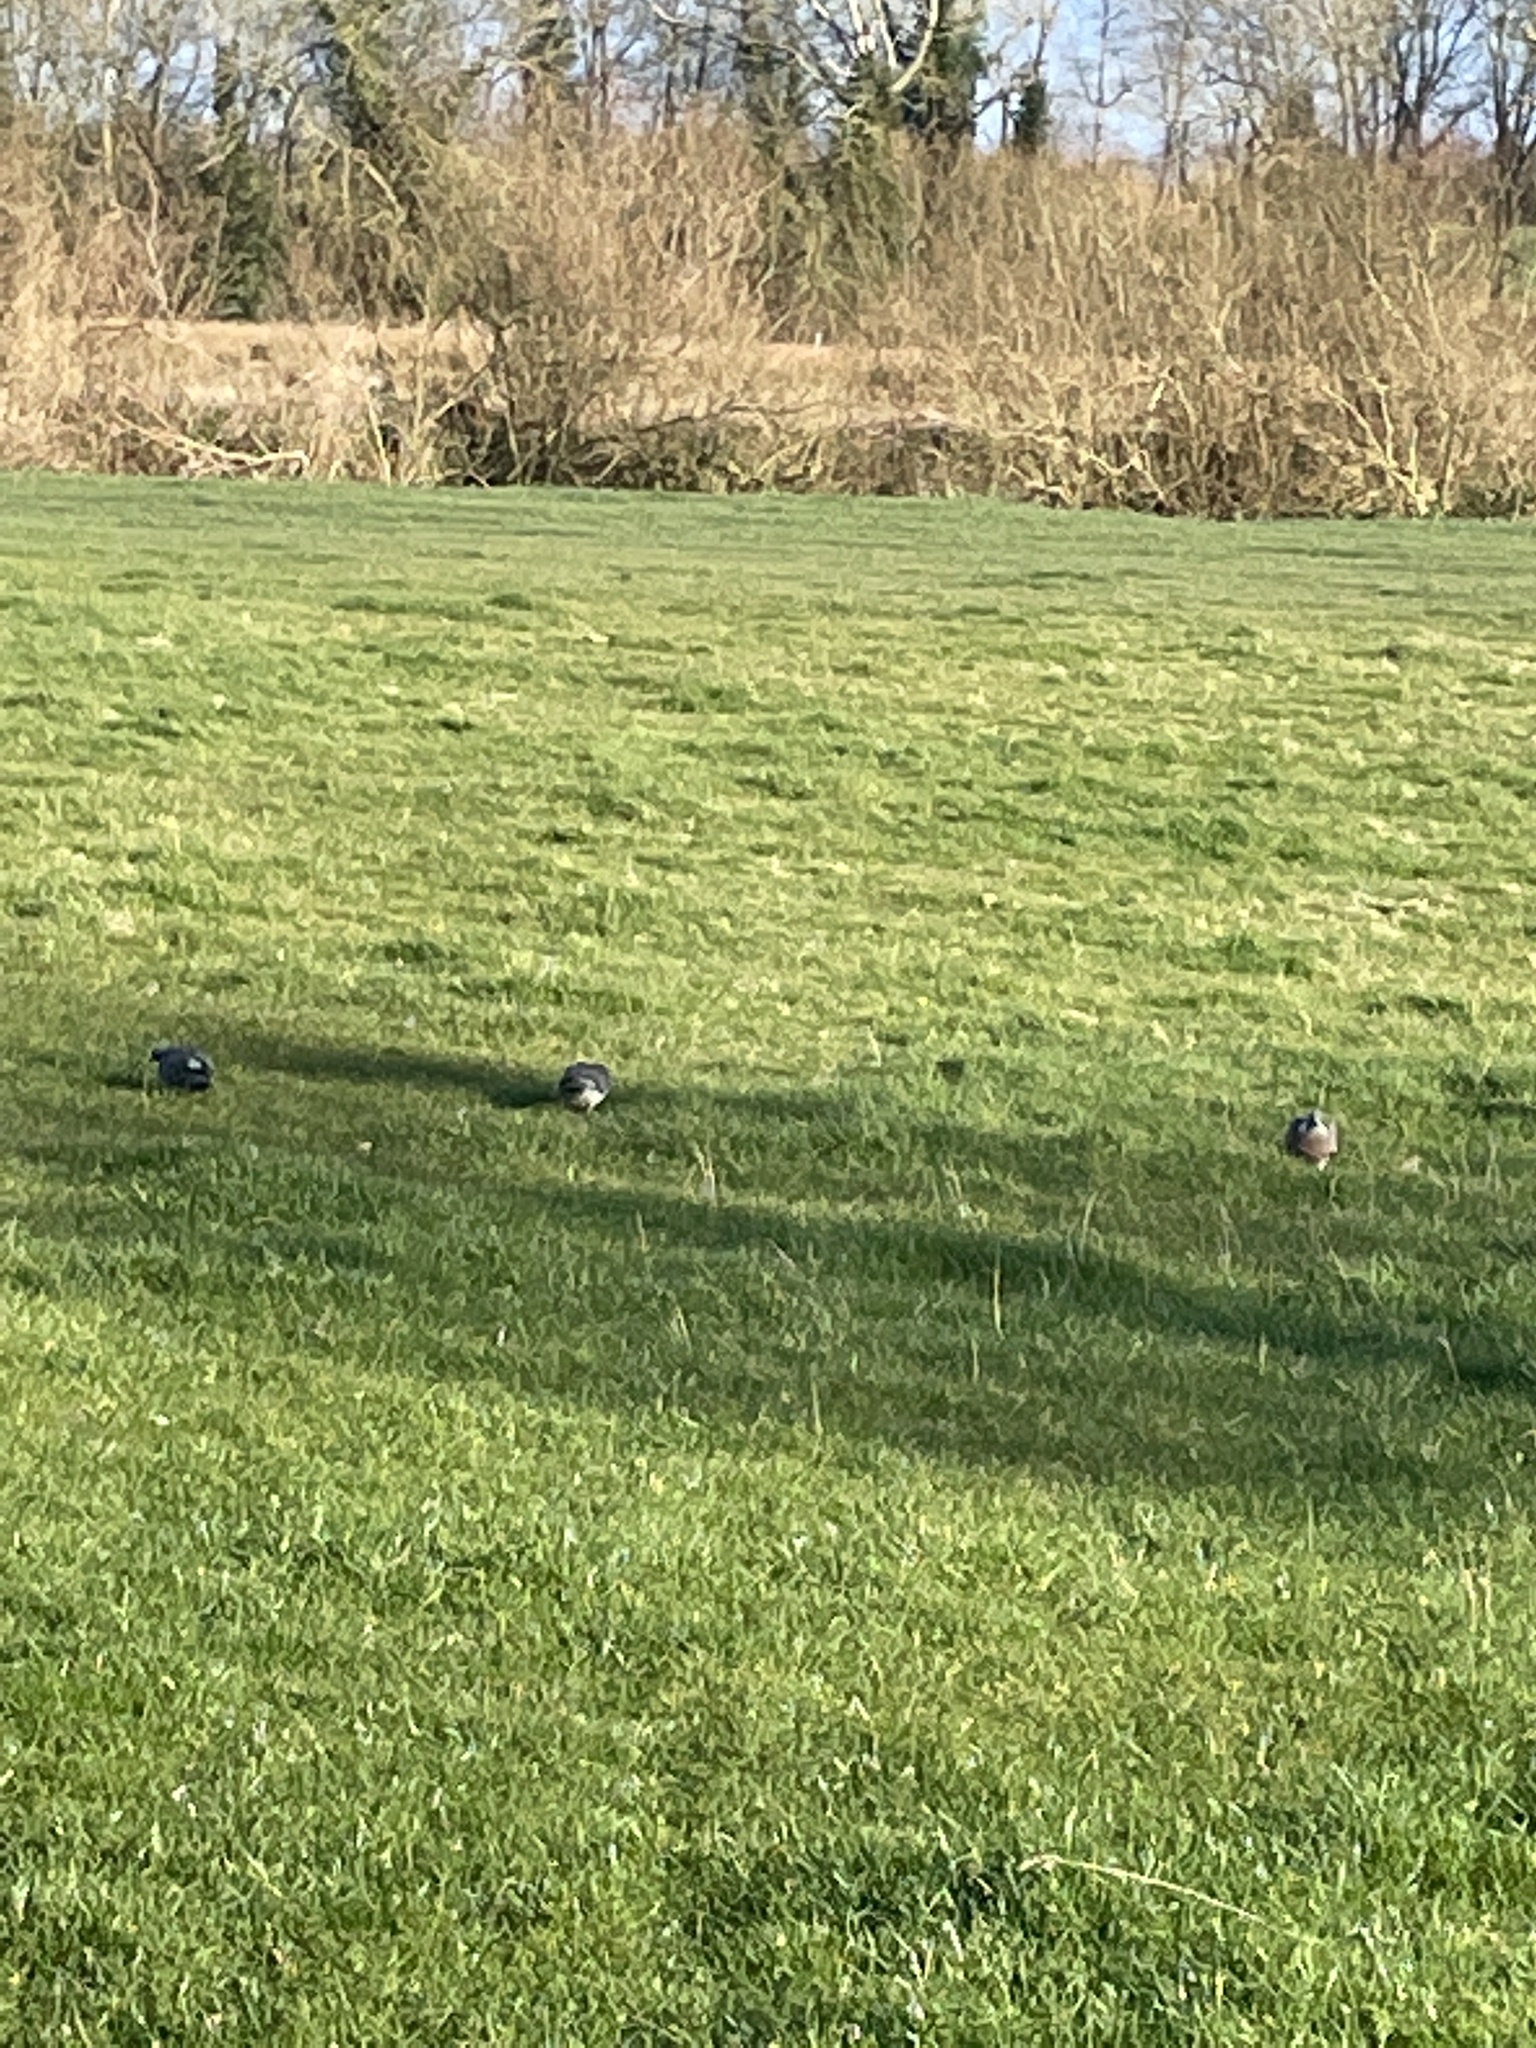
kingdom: Animalia
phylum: Chordata
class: Aves
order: Columbiformes
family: Columbidae
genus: Columba
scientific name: Columba palumbus
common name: Common wood pigeon
